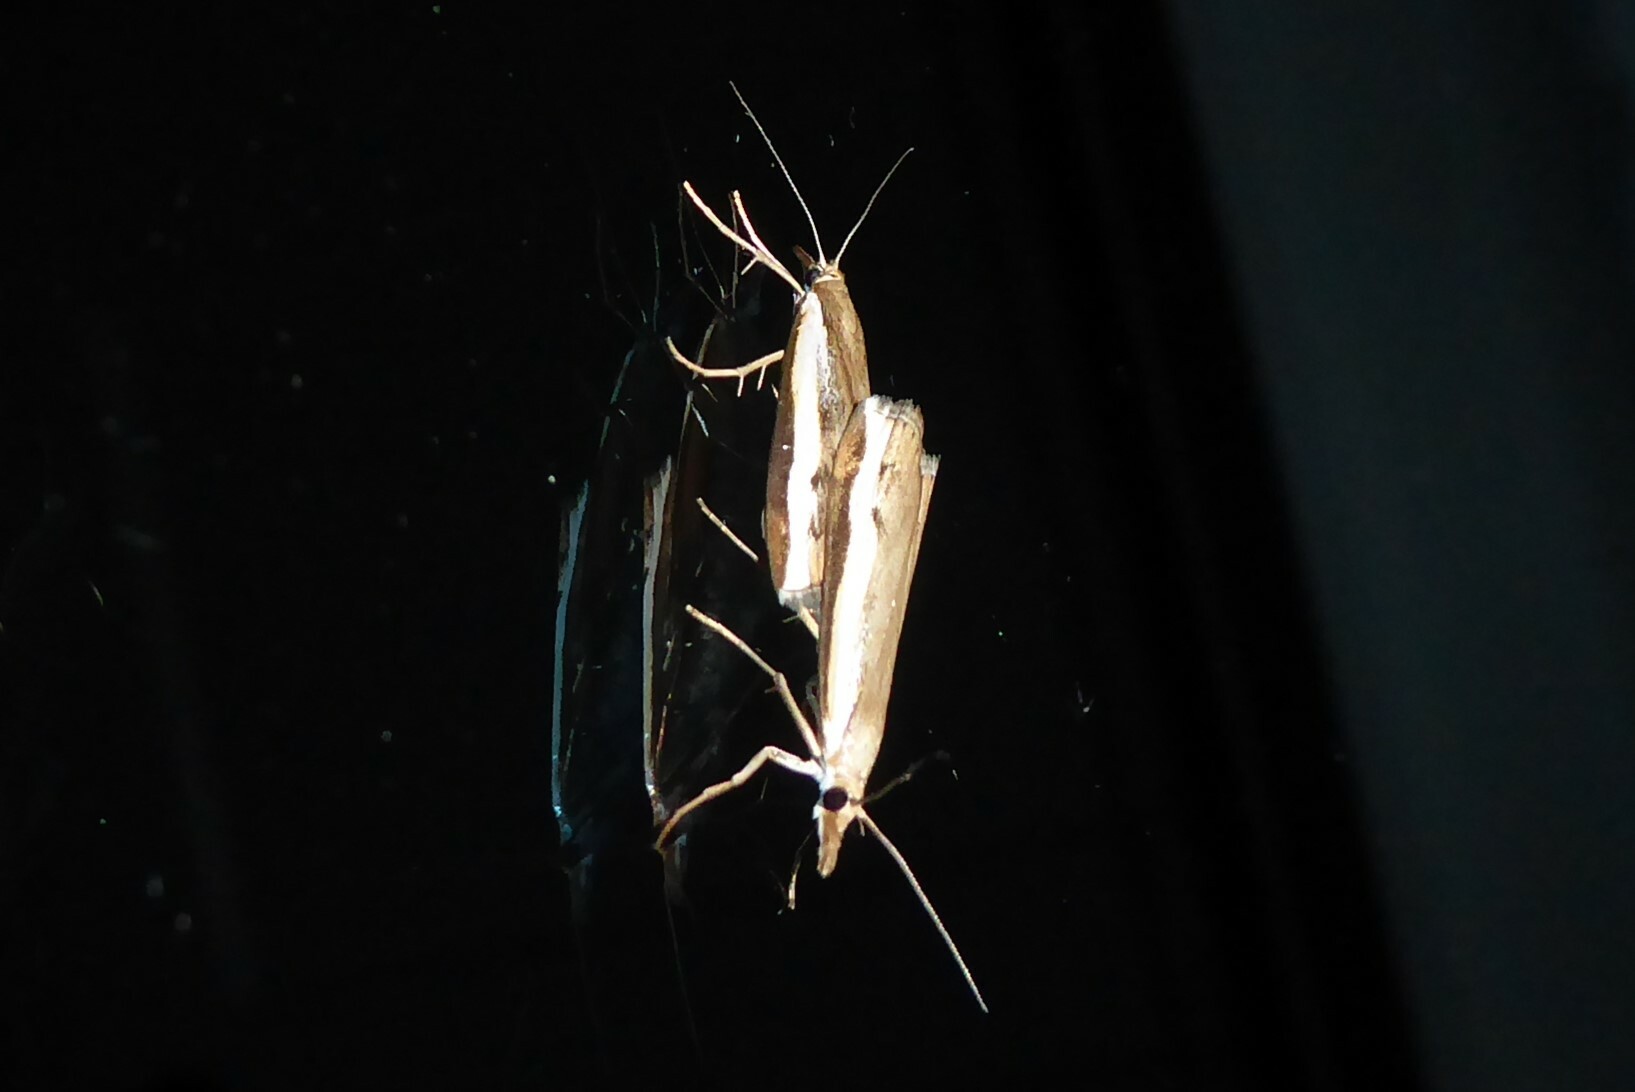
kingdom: Animalia
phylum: Arthropoda
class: Insecta
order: Lepidoptera
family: Crambidae
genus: Orocrambus
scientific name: Orocrambus flexuosellus
